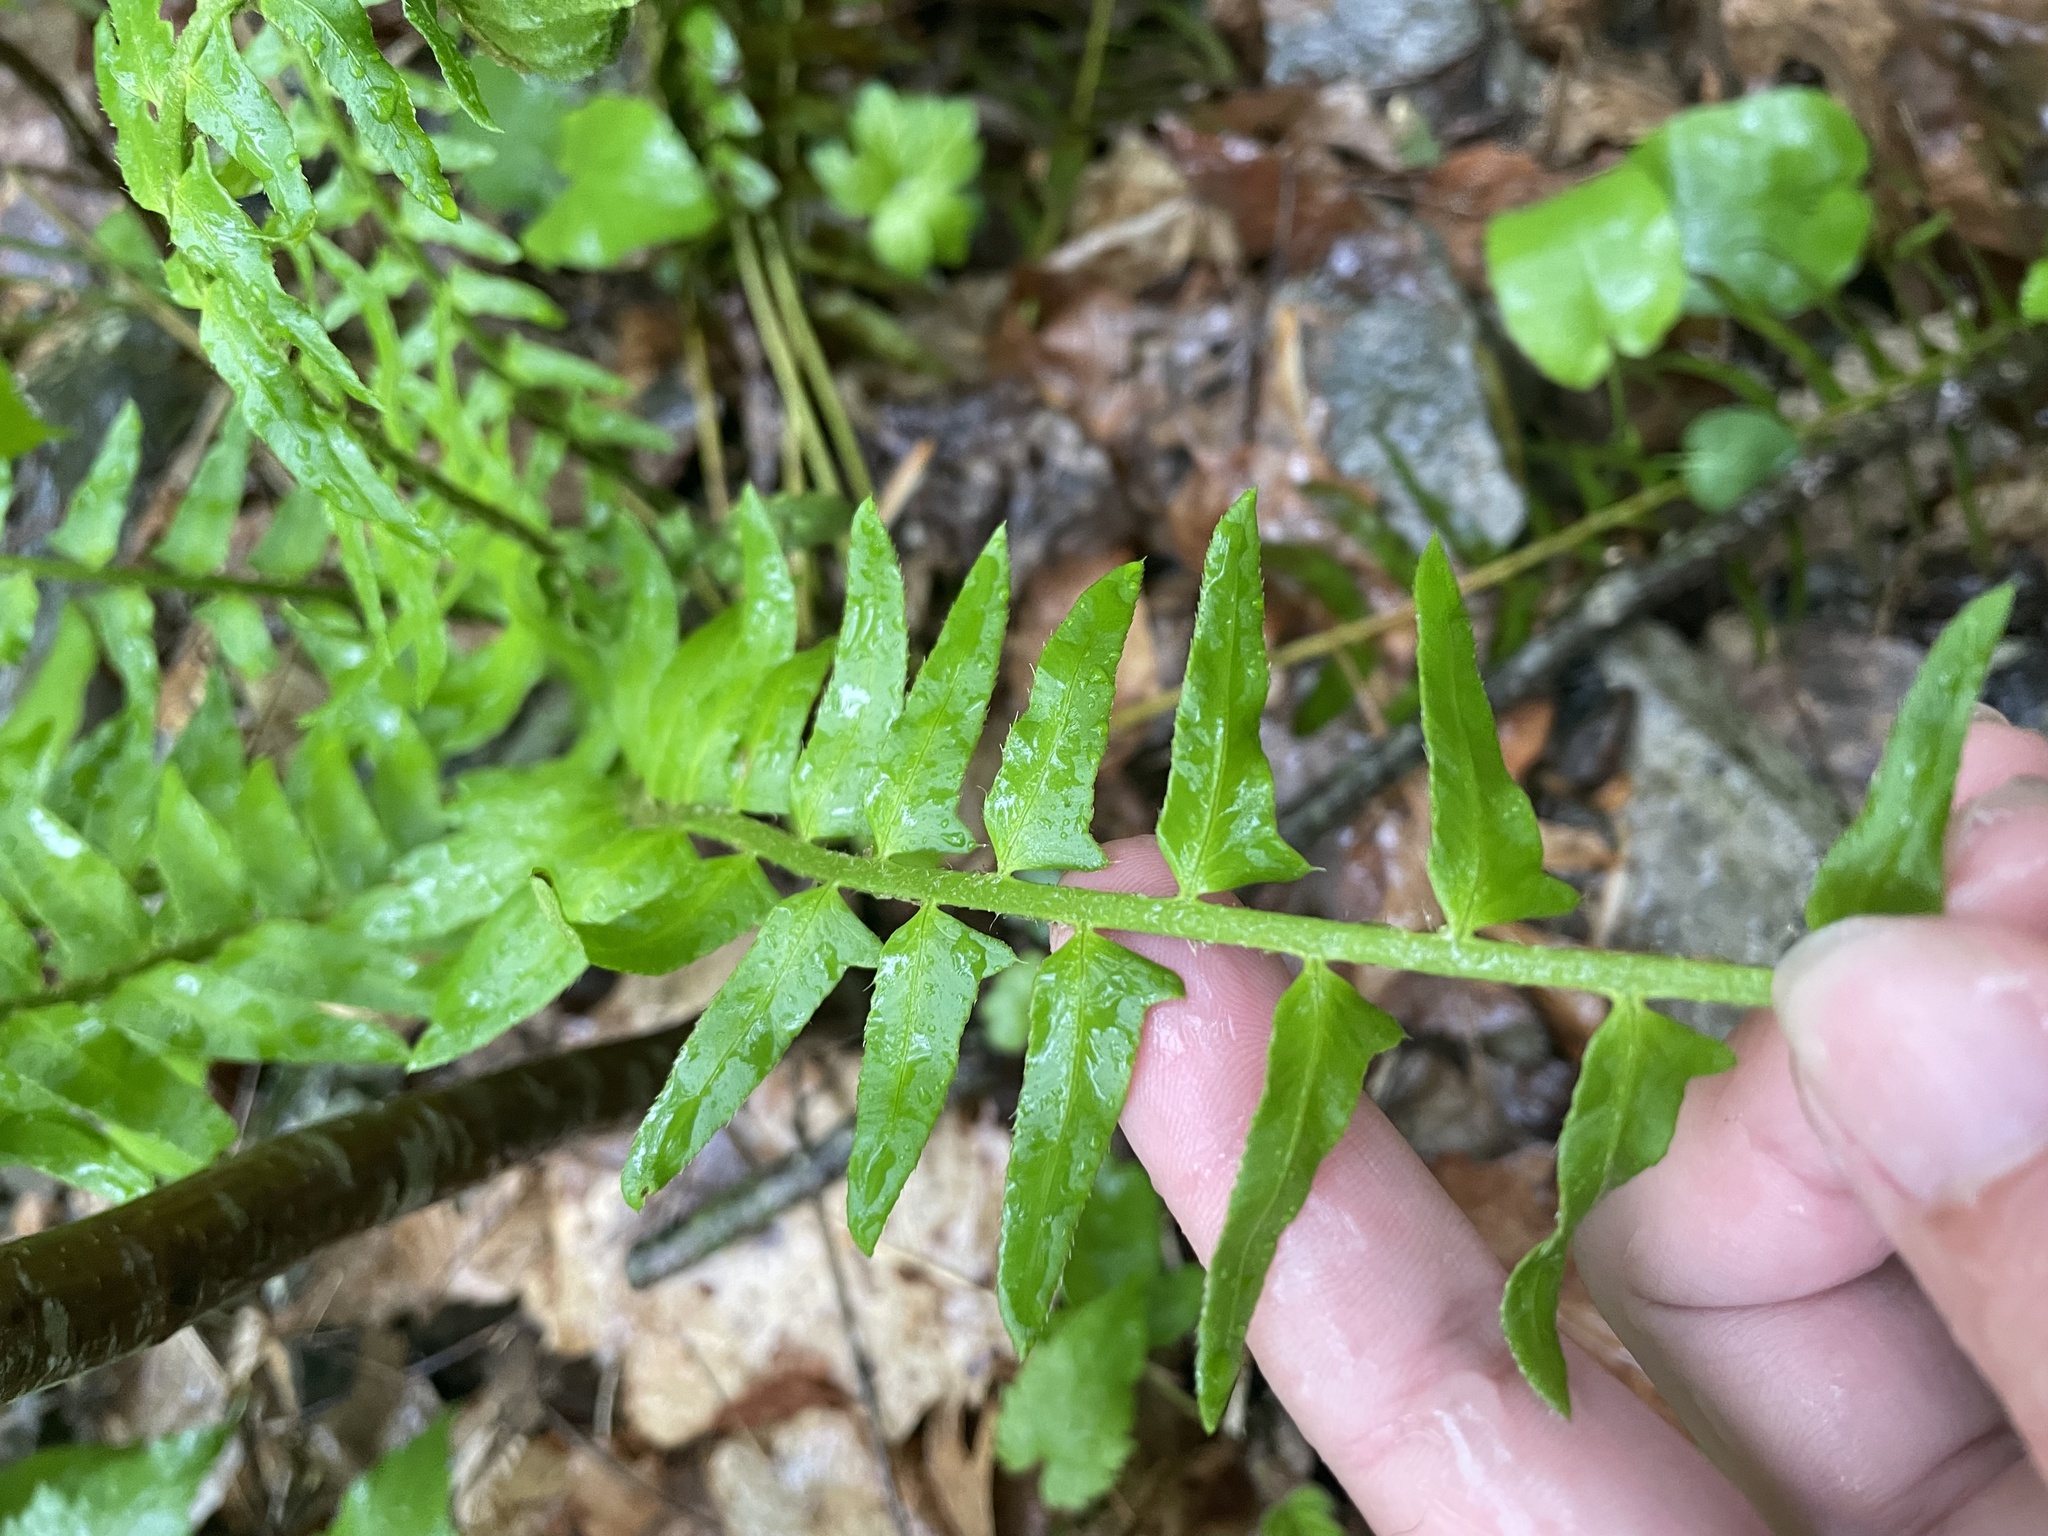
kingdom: Plantae
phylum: Tracheophyta
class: Polypodiopsida
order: Polypodiales
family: Dryopteridaceae
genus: Polystichum
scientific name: Polystichum acrostichoides
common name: Christmas fern
